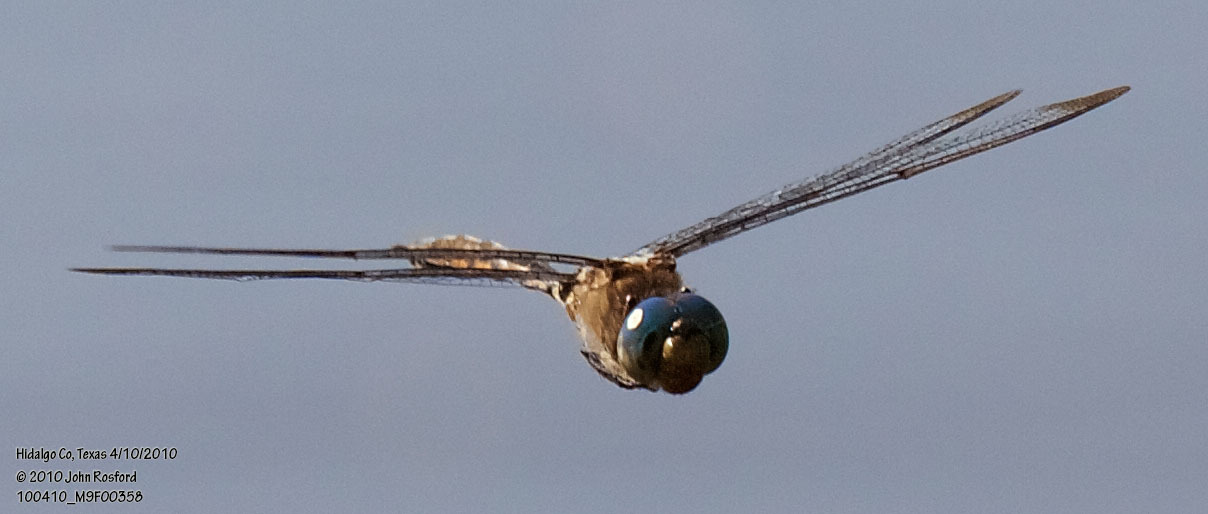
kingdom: Animalia
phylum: Arthropoda
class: Insecta
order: Odonata
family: Corduliidae
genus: Epitheca
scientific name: Epitheca princeps
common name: Prince baskettail
